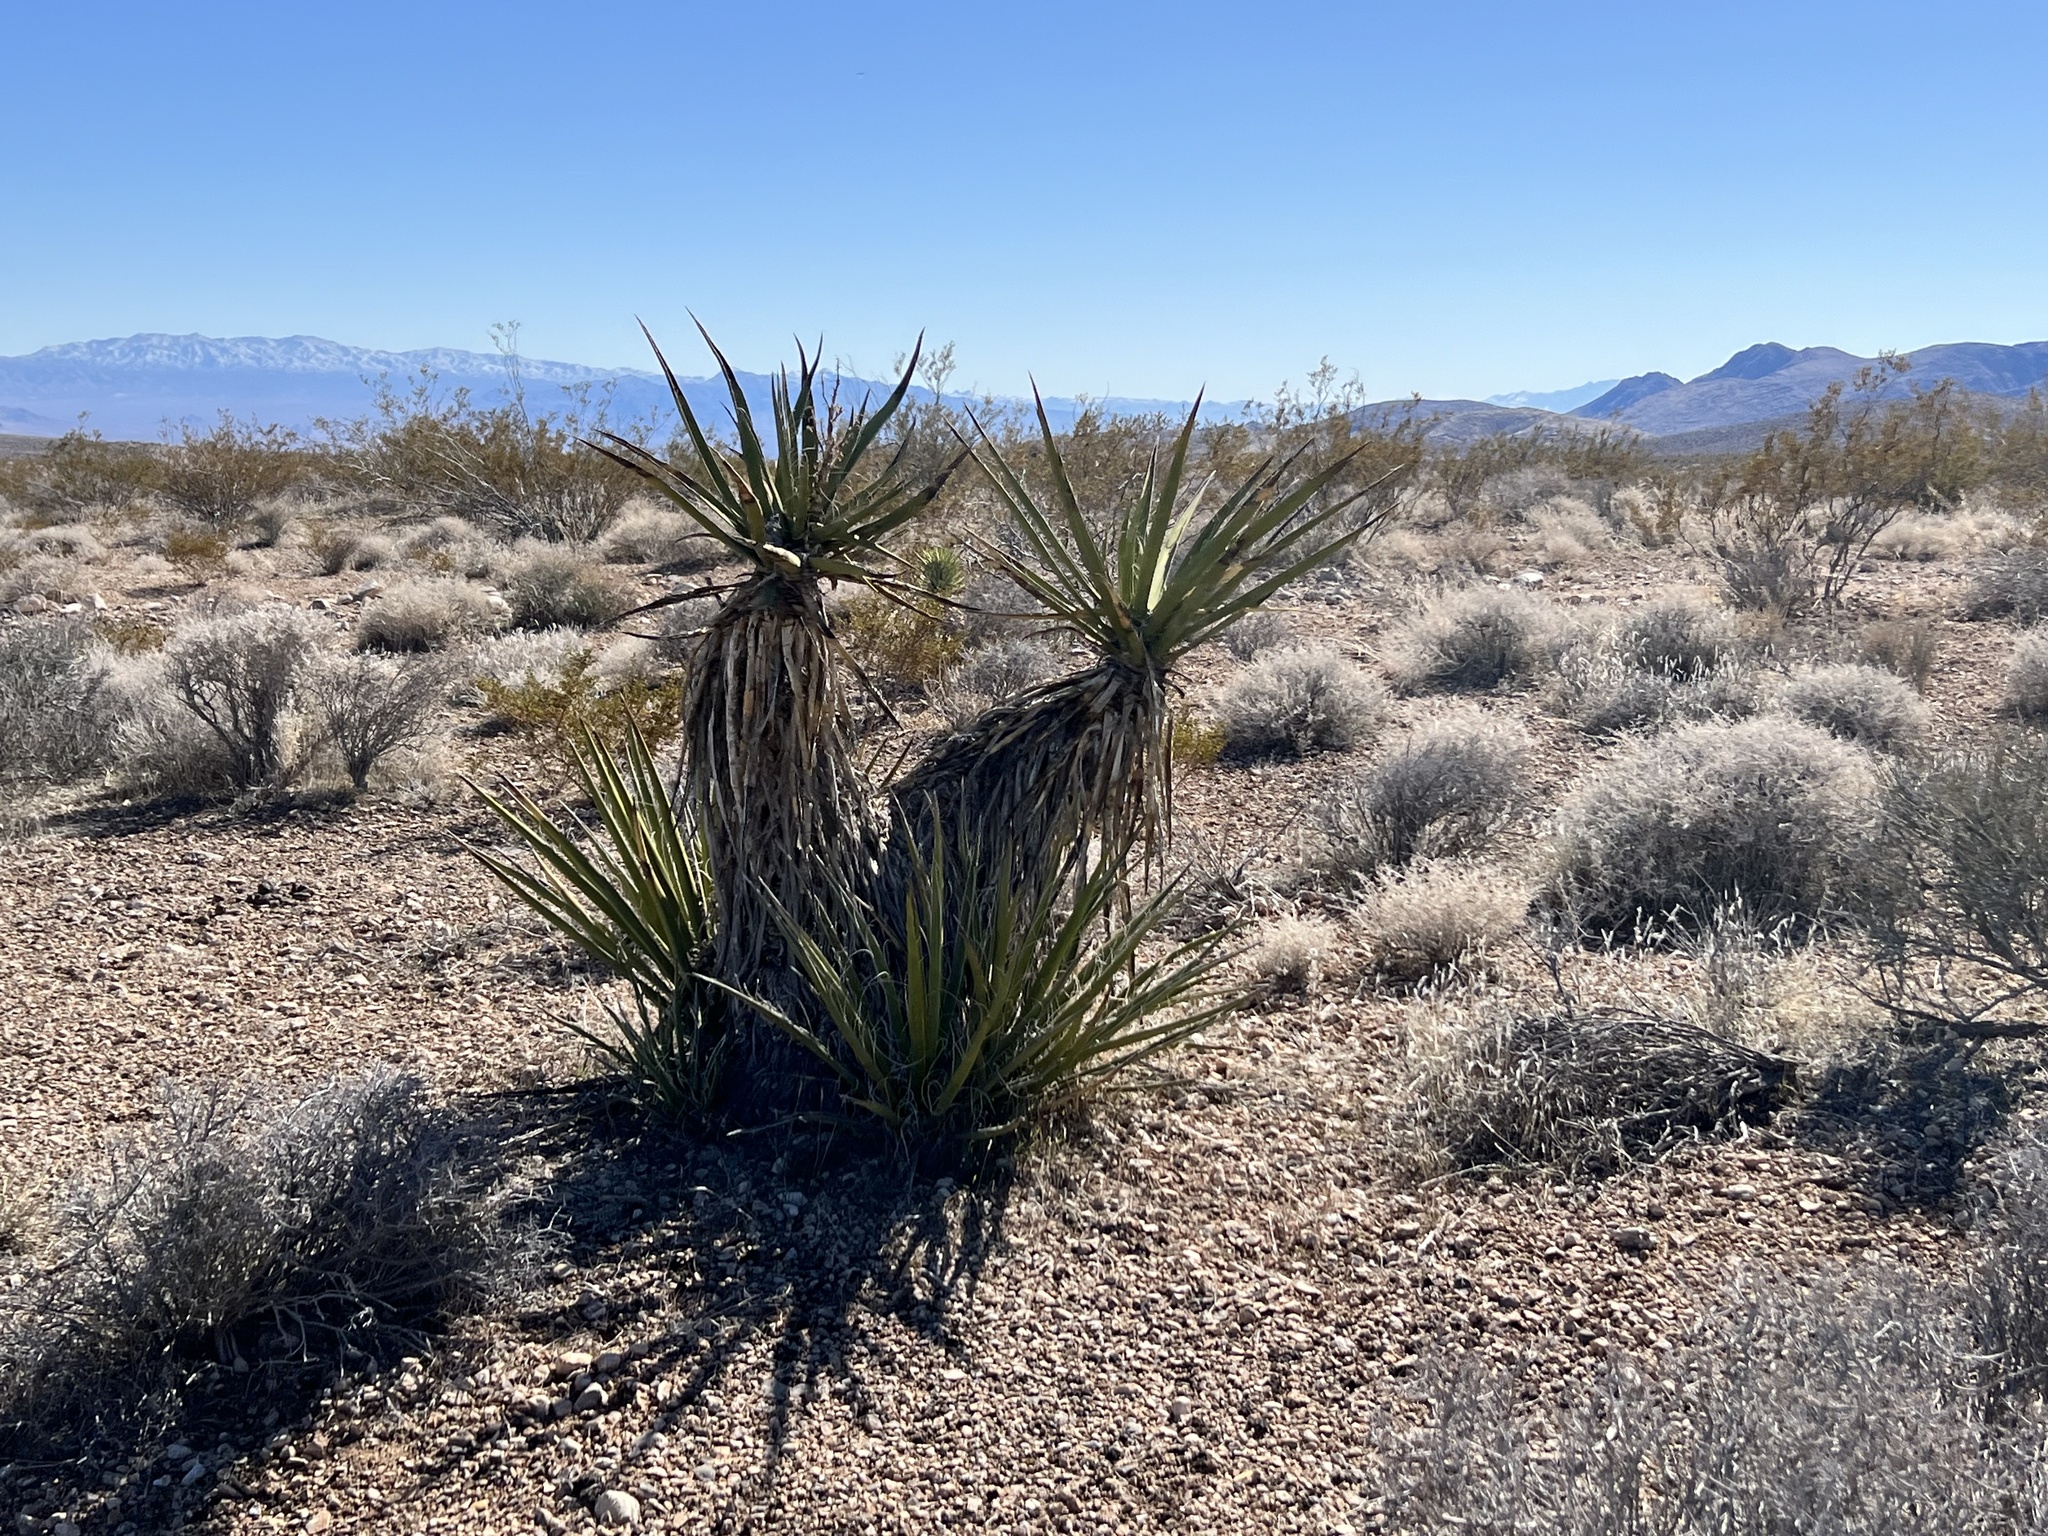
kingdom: Plantae
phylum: Tracheophyta
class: Liliopsida
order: Asparagales
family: Asparagaceae
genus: Yucca
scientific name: Yucca schidigera
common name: Mojave yucca
